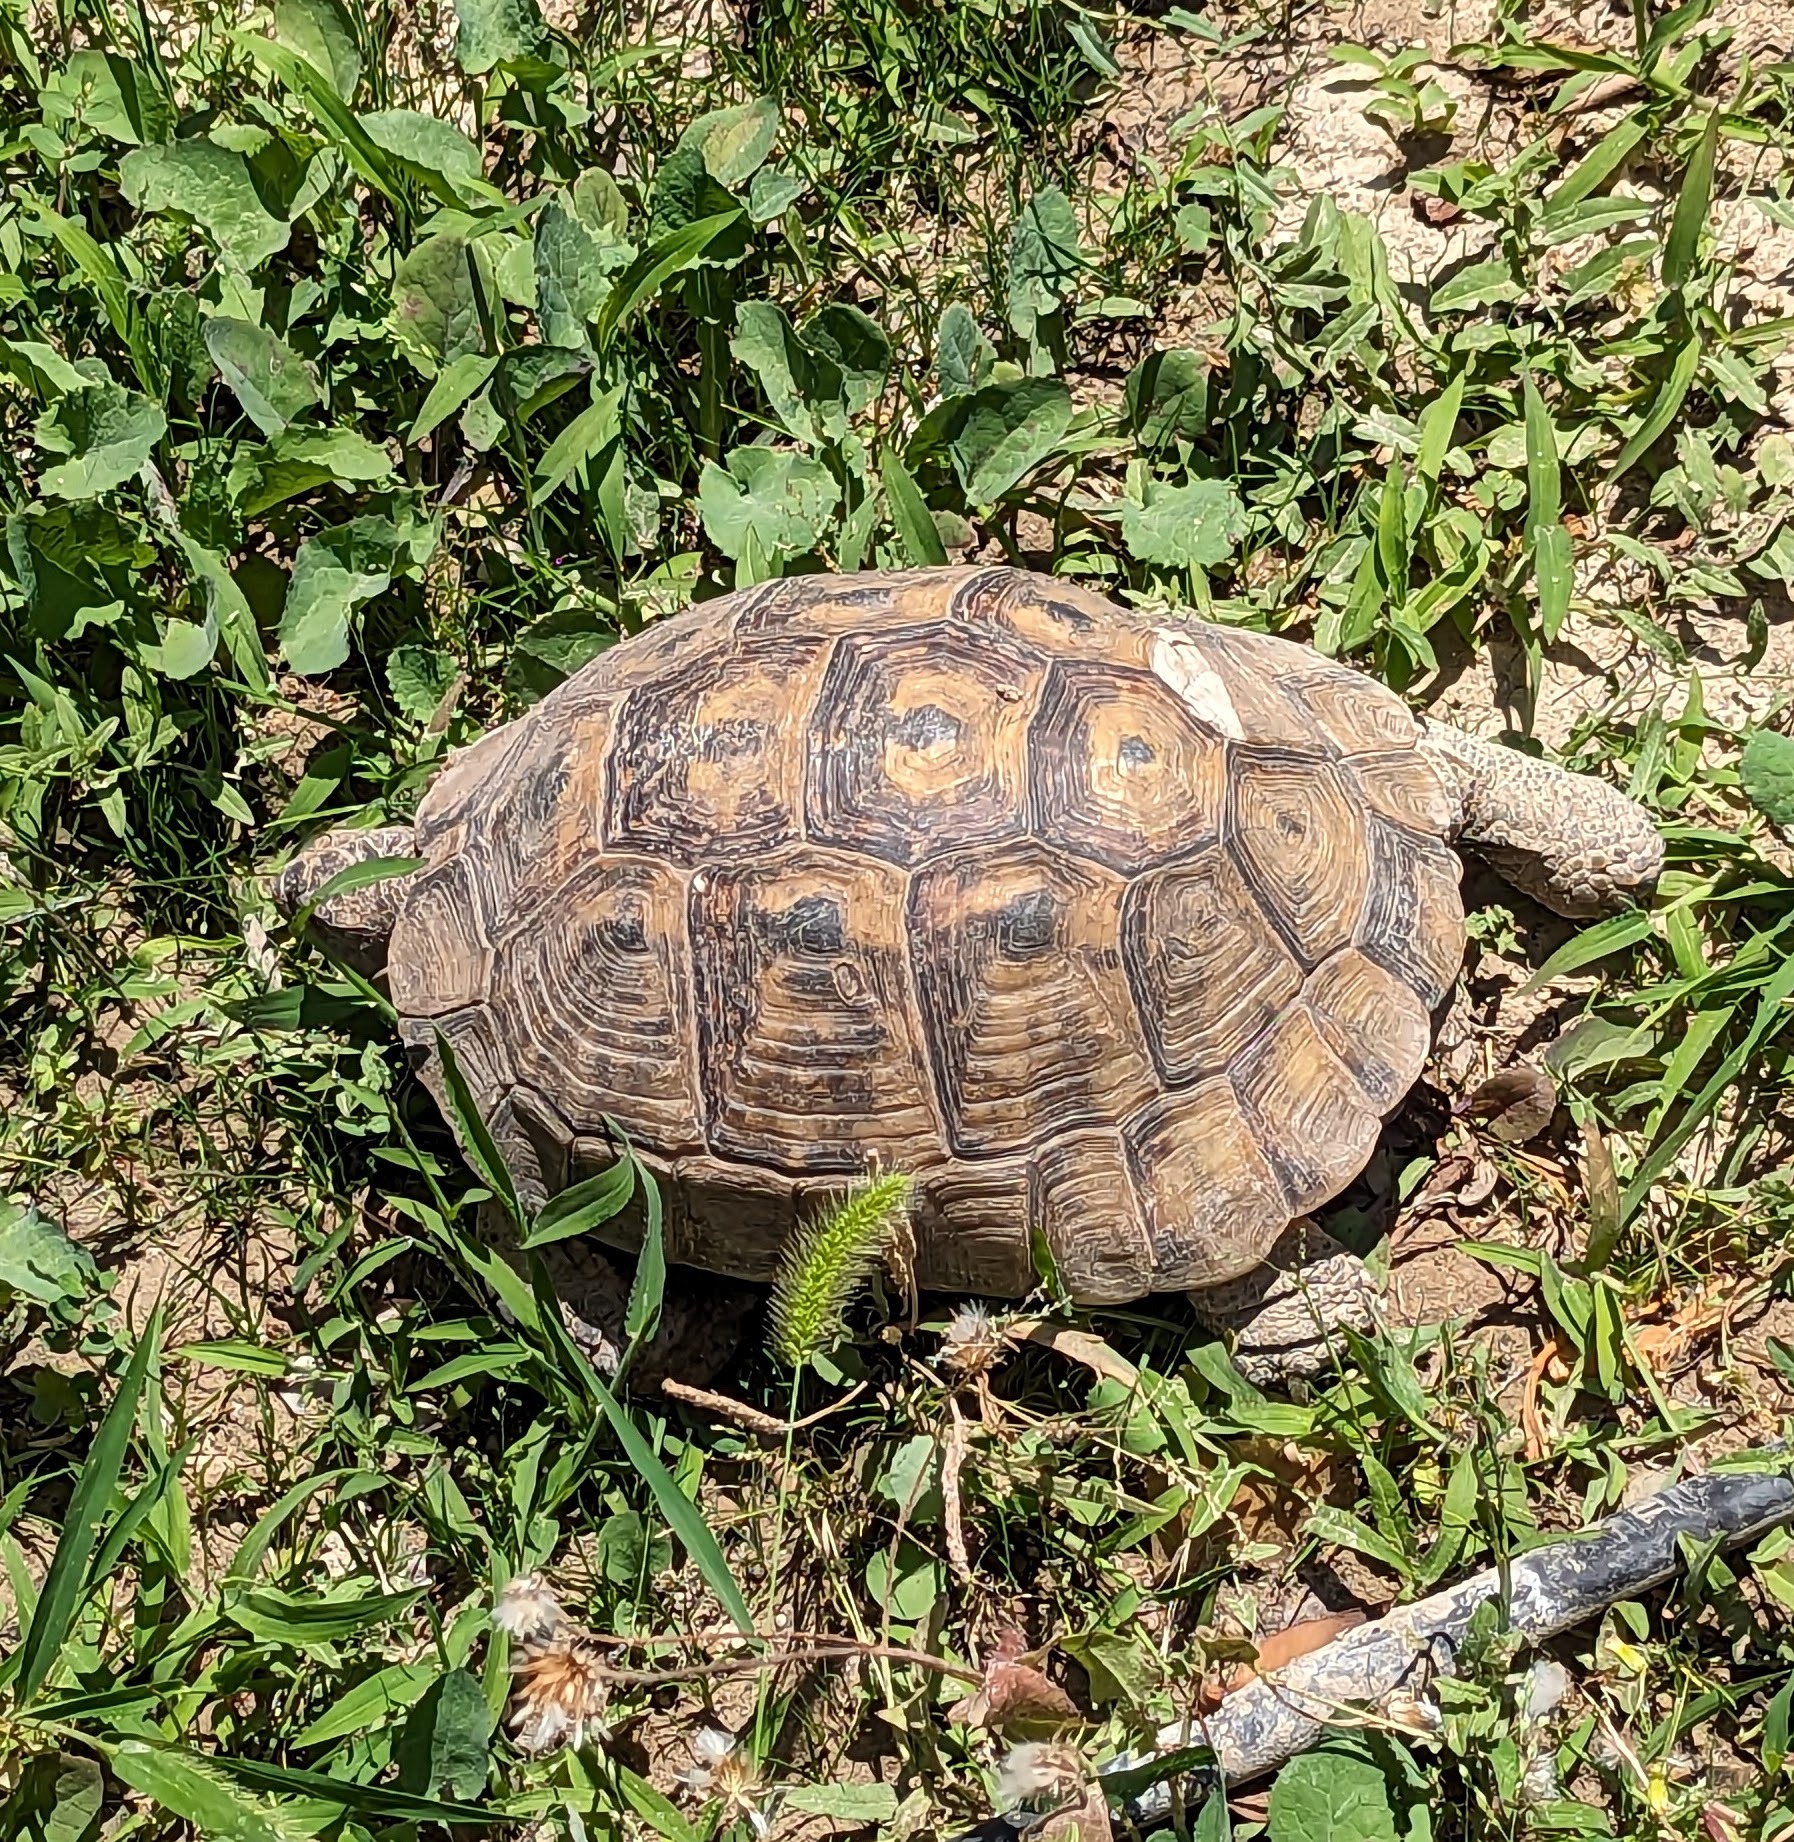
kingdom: Animalia
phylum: Chordata
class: Testudines
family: Testudinidae
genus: Testudo
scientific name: Testudo graeca
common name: Common tortoise
